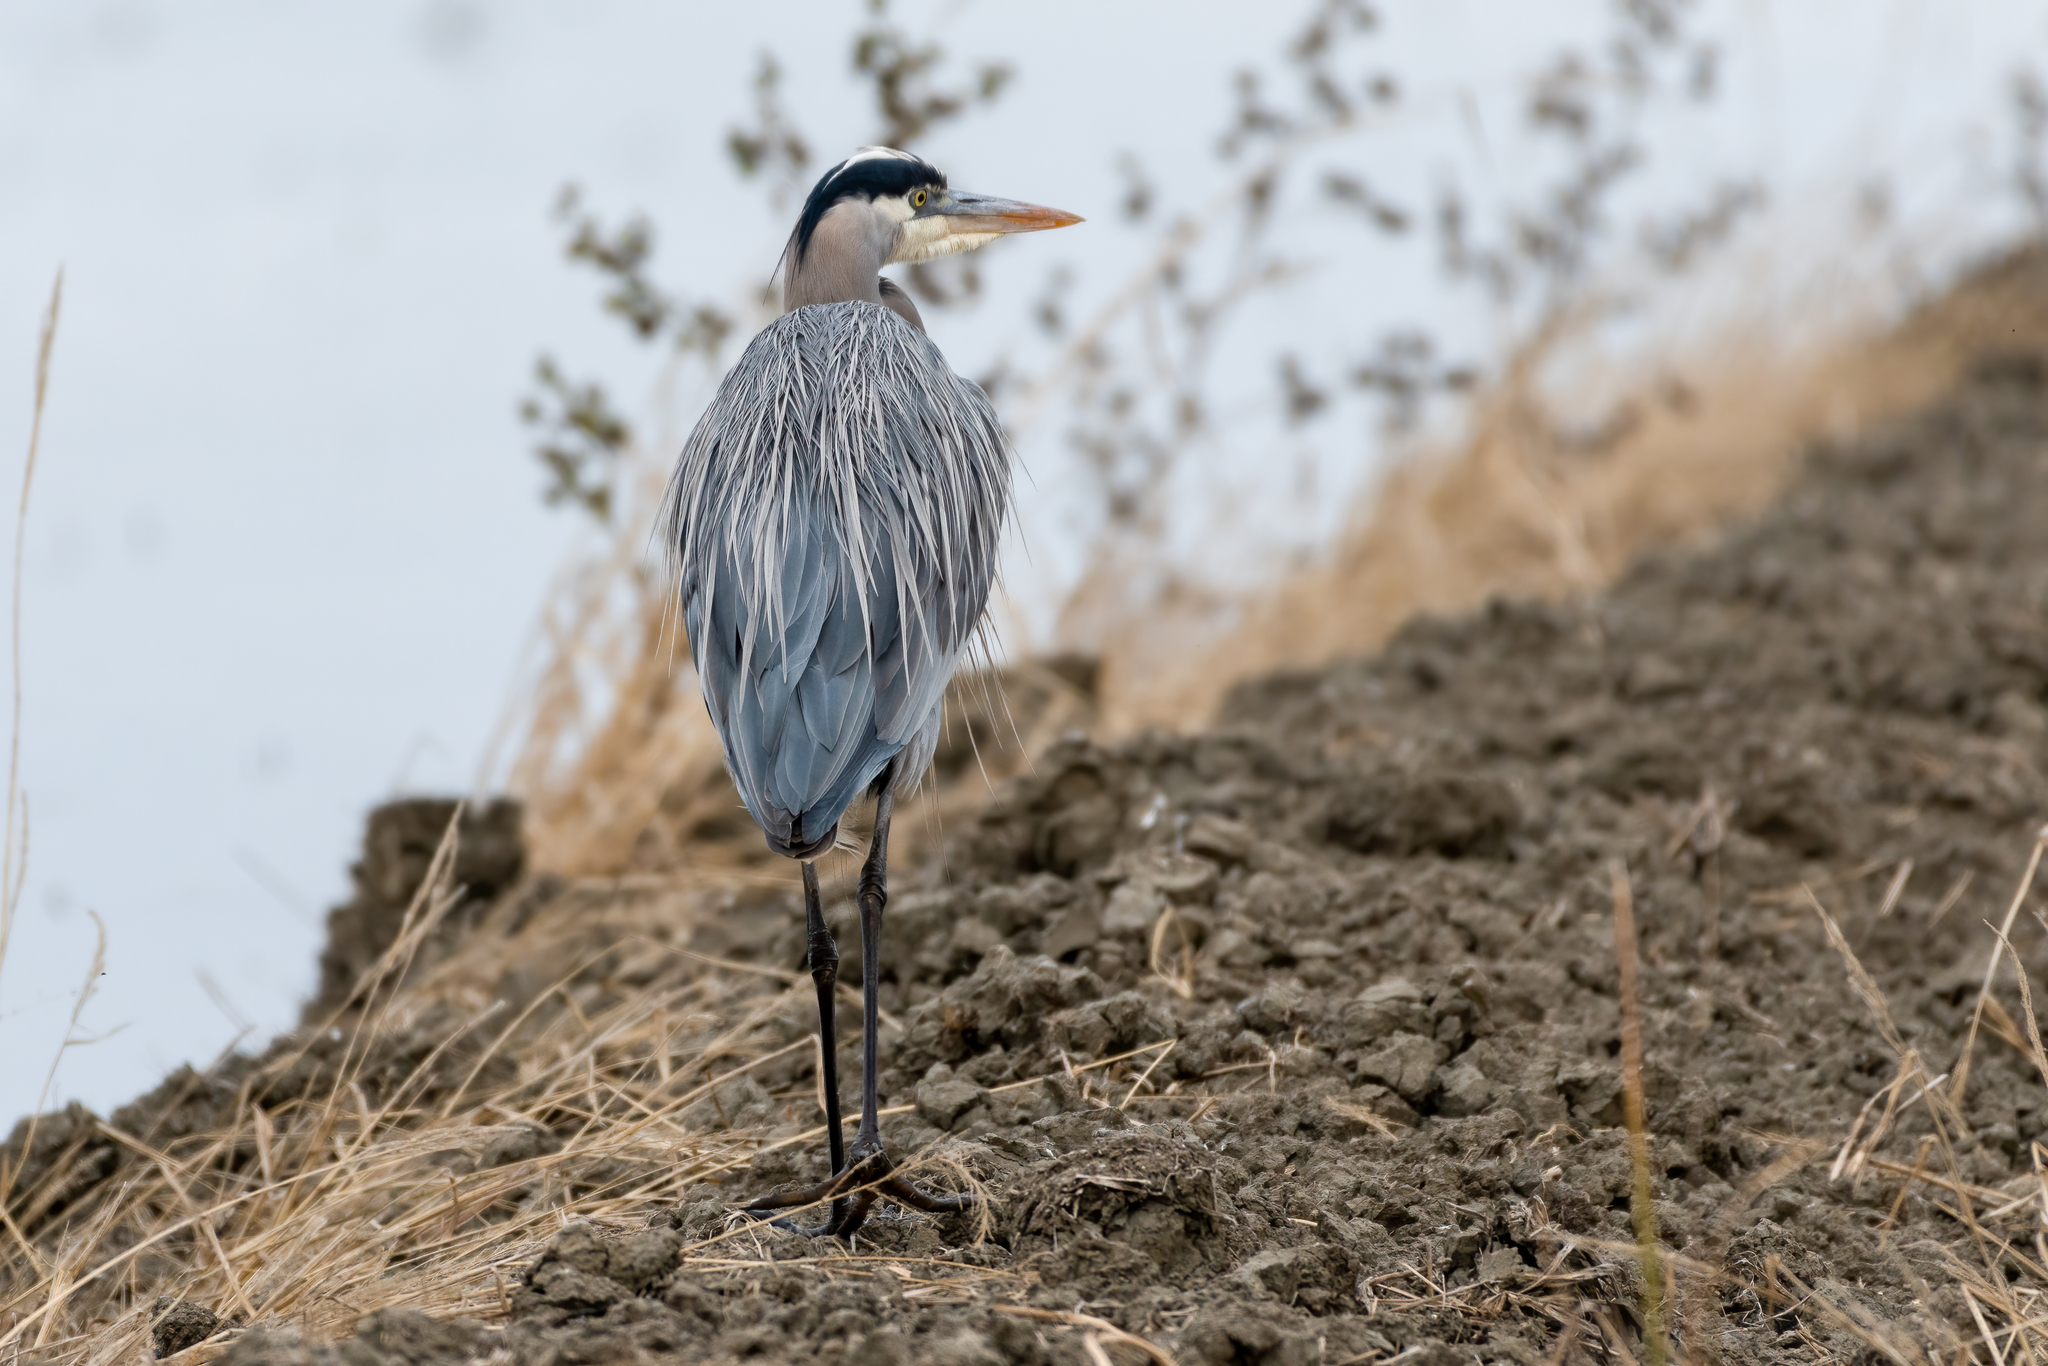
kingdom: Animalia
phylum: Chordata
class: Aves
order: Pelecaniformes
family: Ardeidae
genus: Ardea
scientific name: Ardea herodias
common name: Great blue heron
